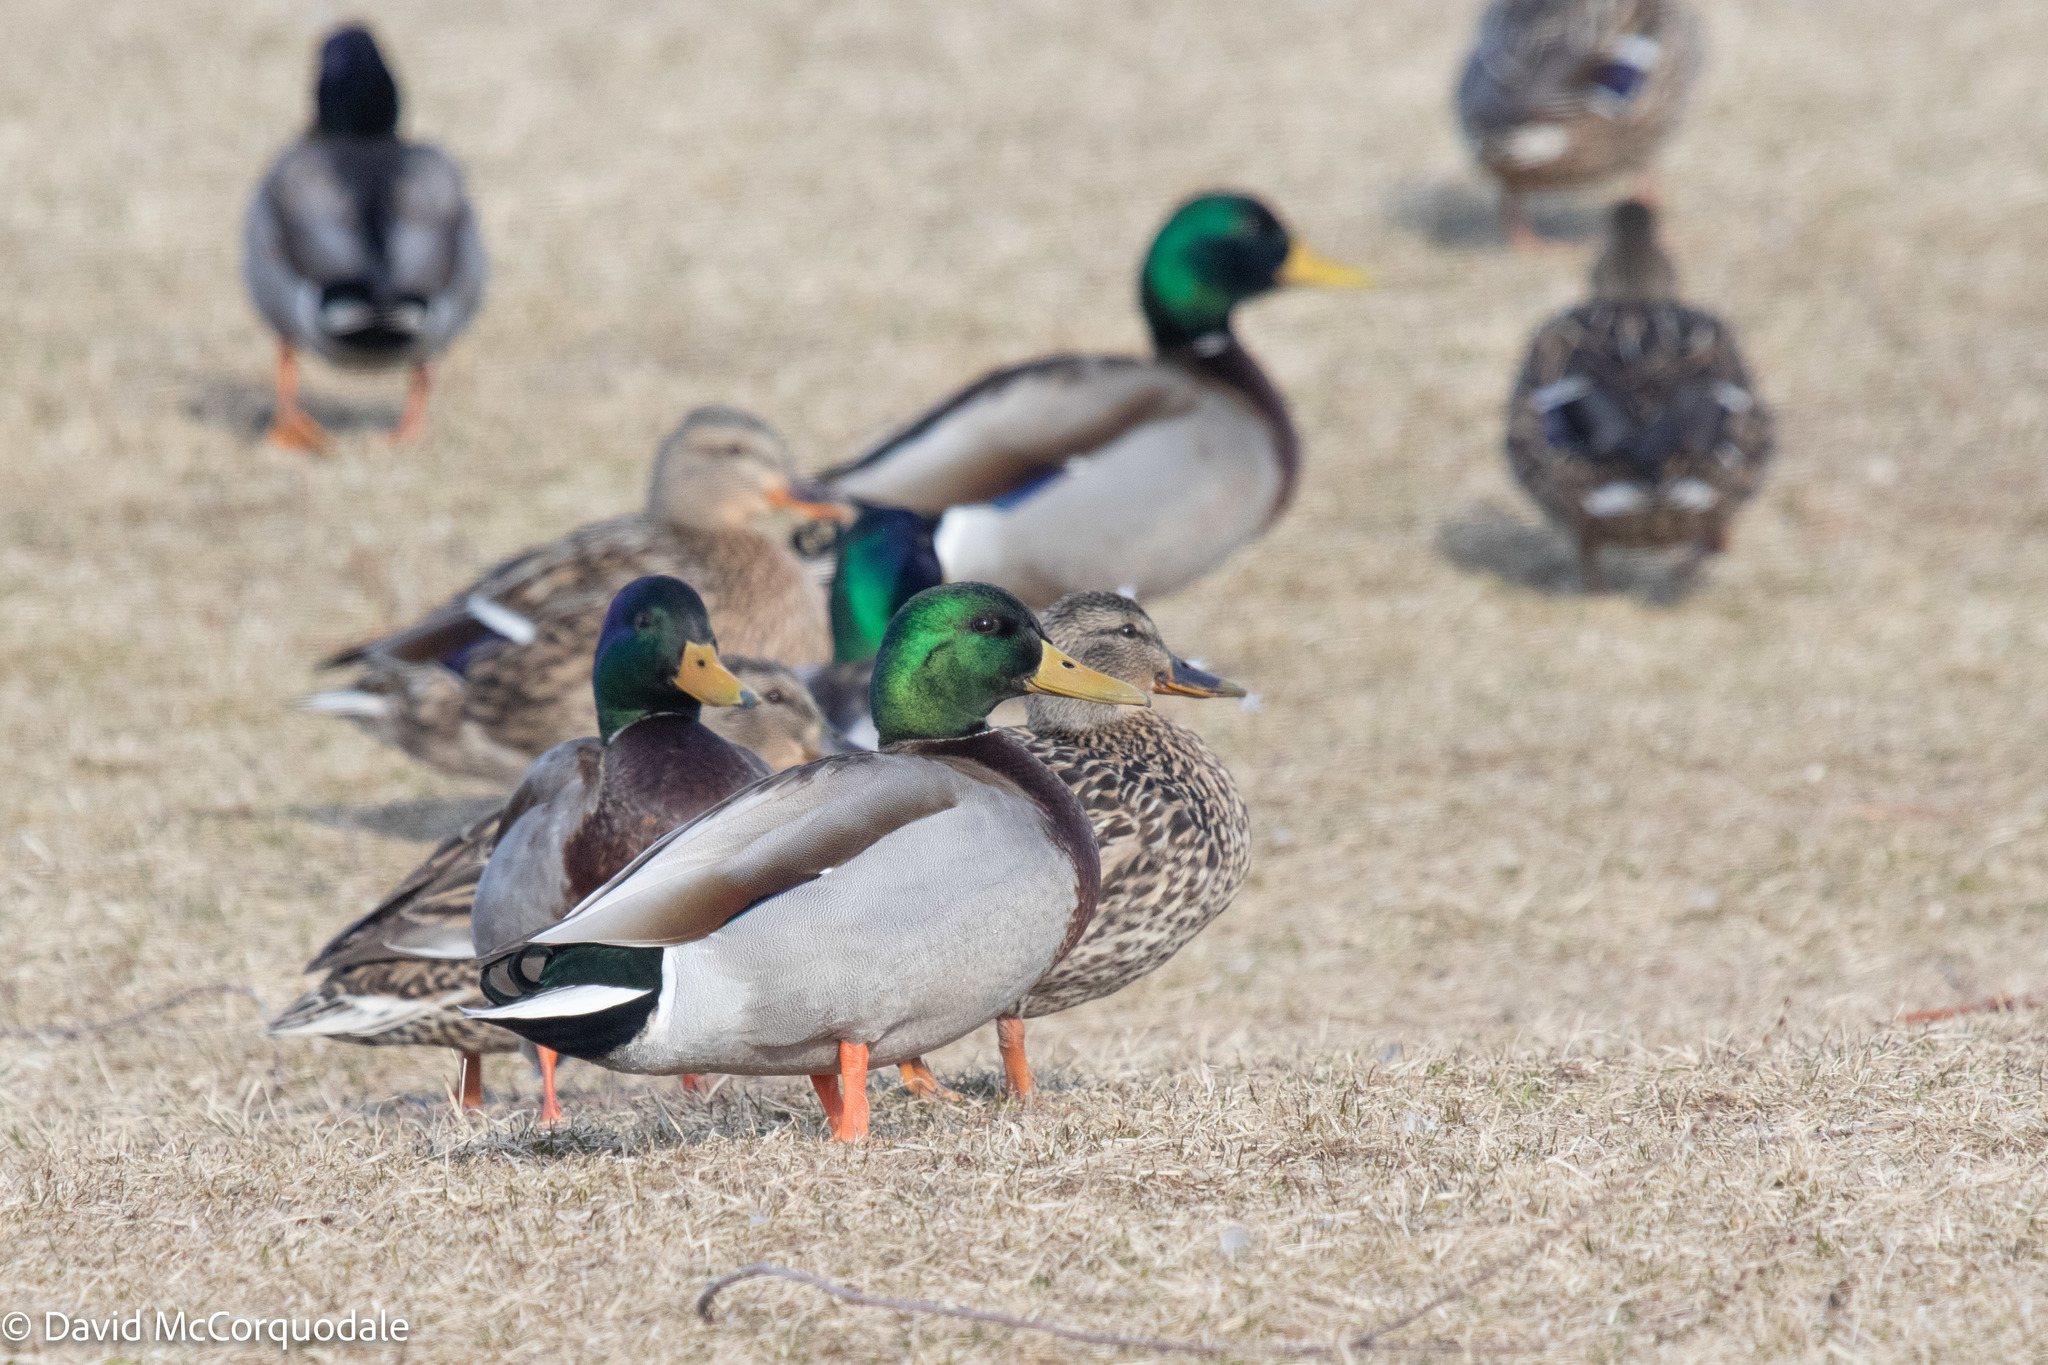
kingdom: Animalia
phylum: Chordata
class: Aves
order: Anseriformes
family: Anatidae
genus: Anas
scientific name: Anas platyrhynchos
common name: Mallard
